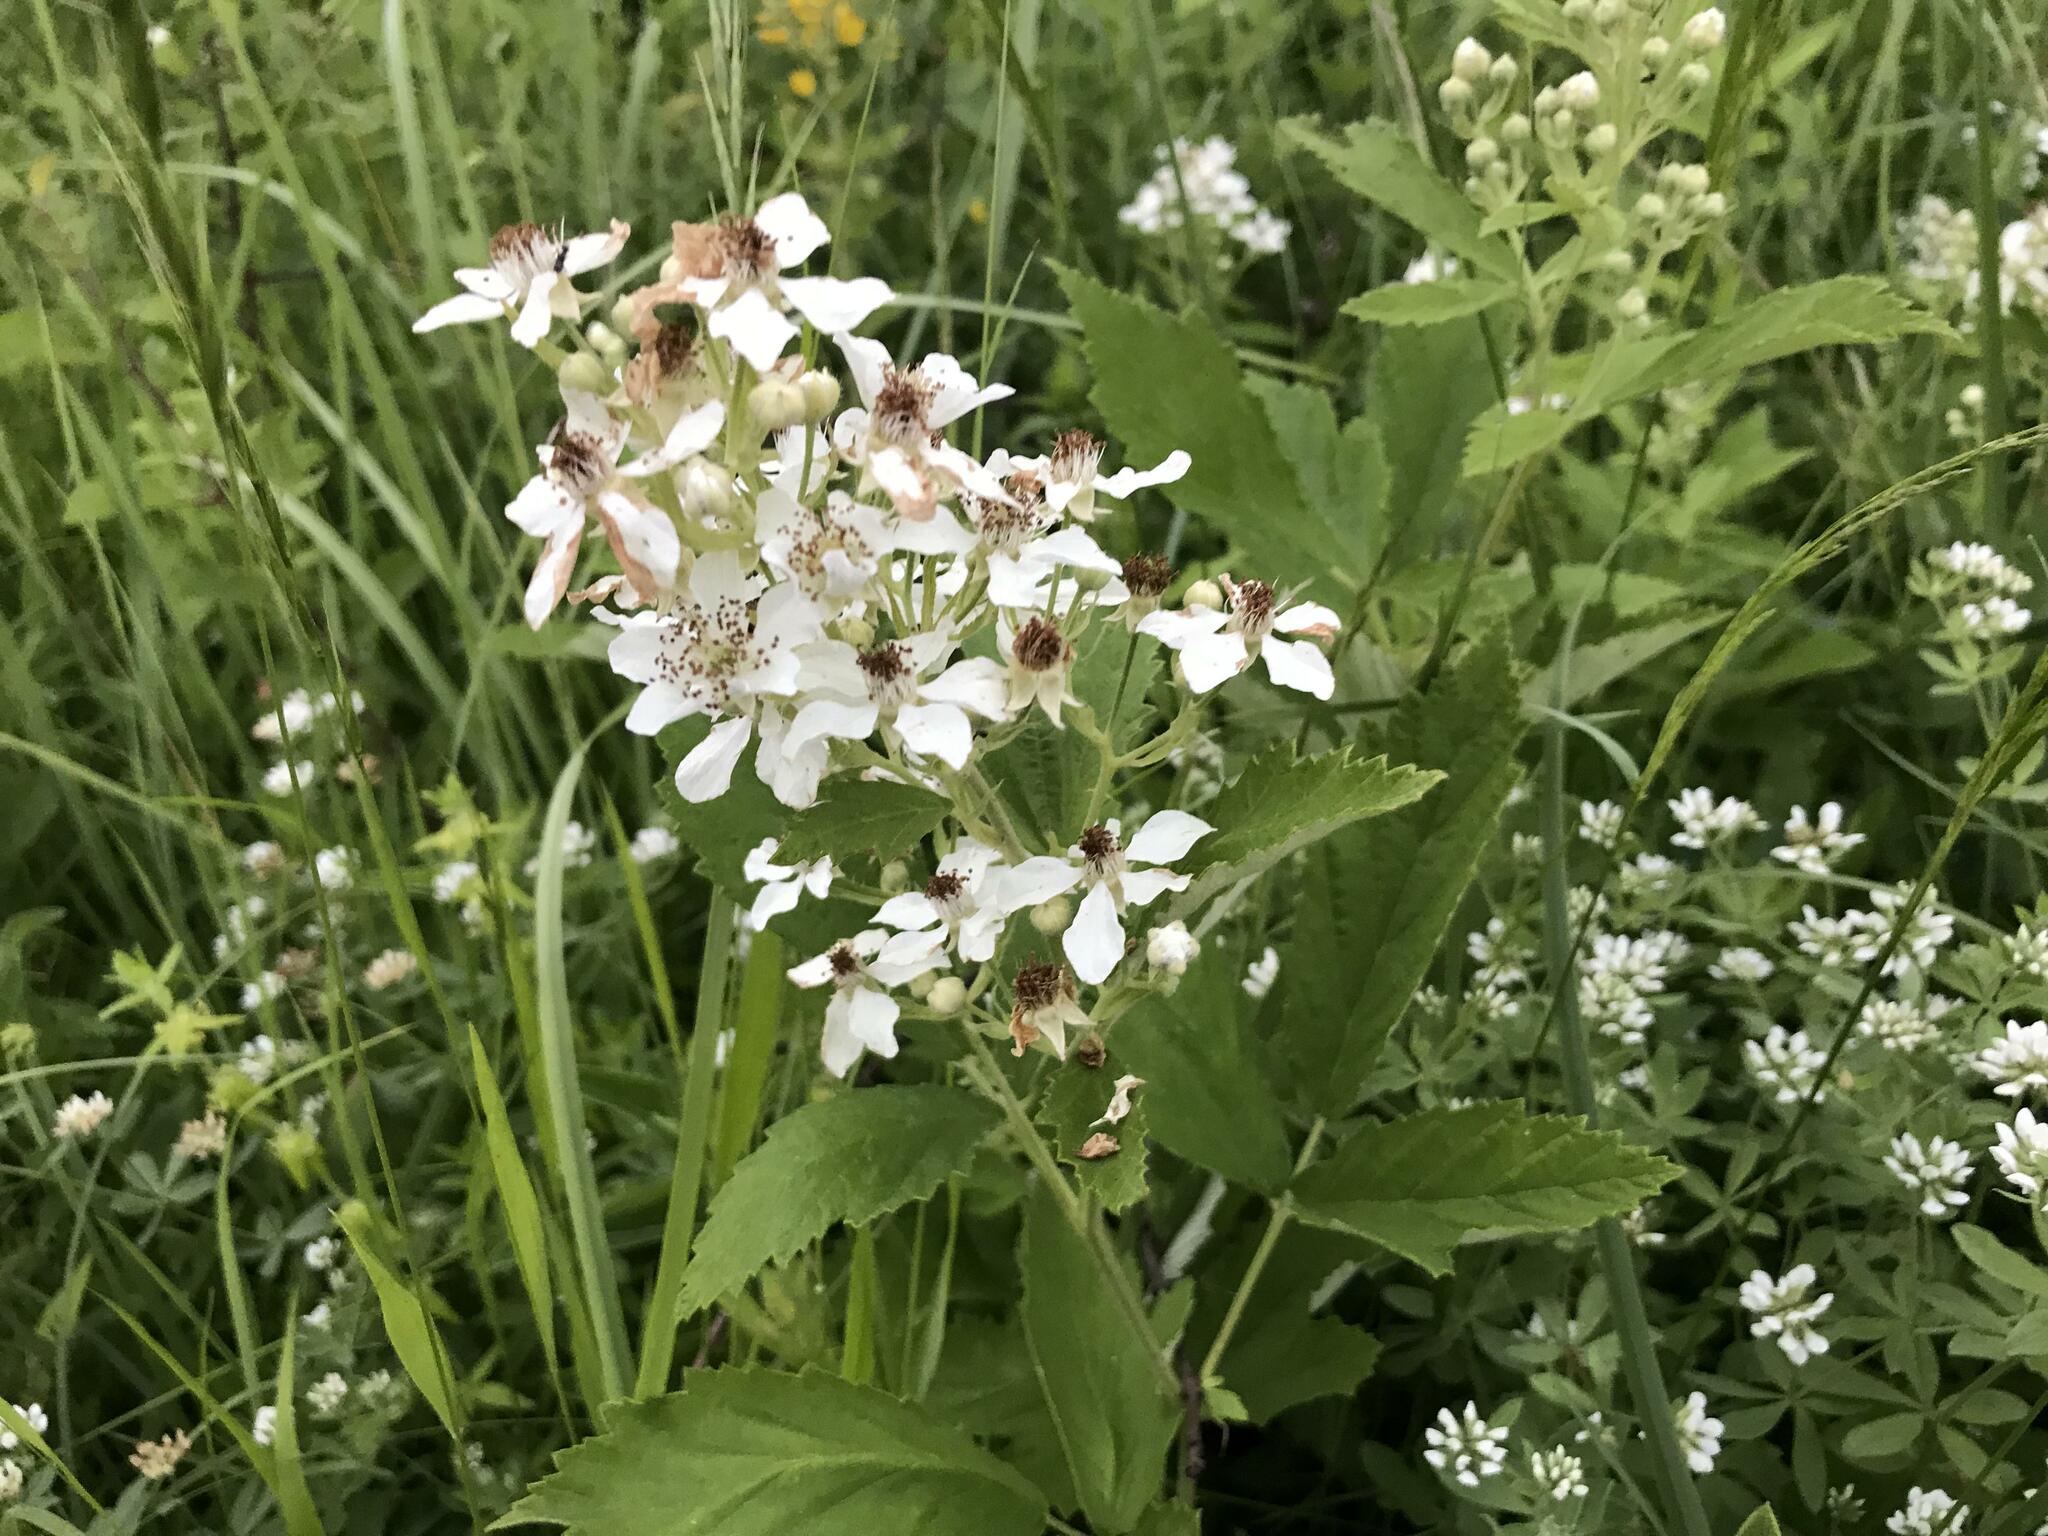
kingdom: Plantae
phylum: Tracheophyta
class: Magnoliopsida
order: Rosales
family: Rosaceae
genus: Rubus
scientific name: Rubus canescens
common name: Wooly blackberry
